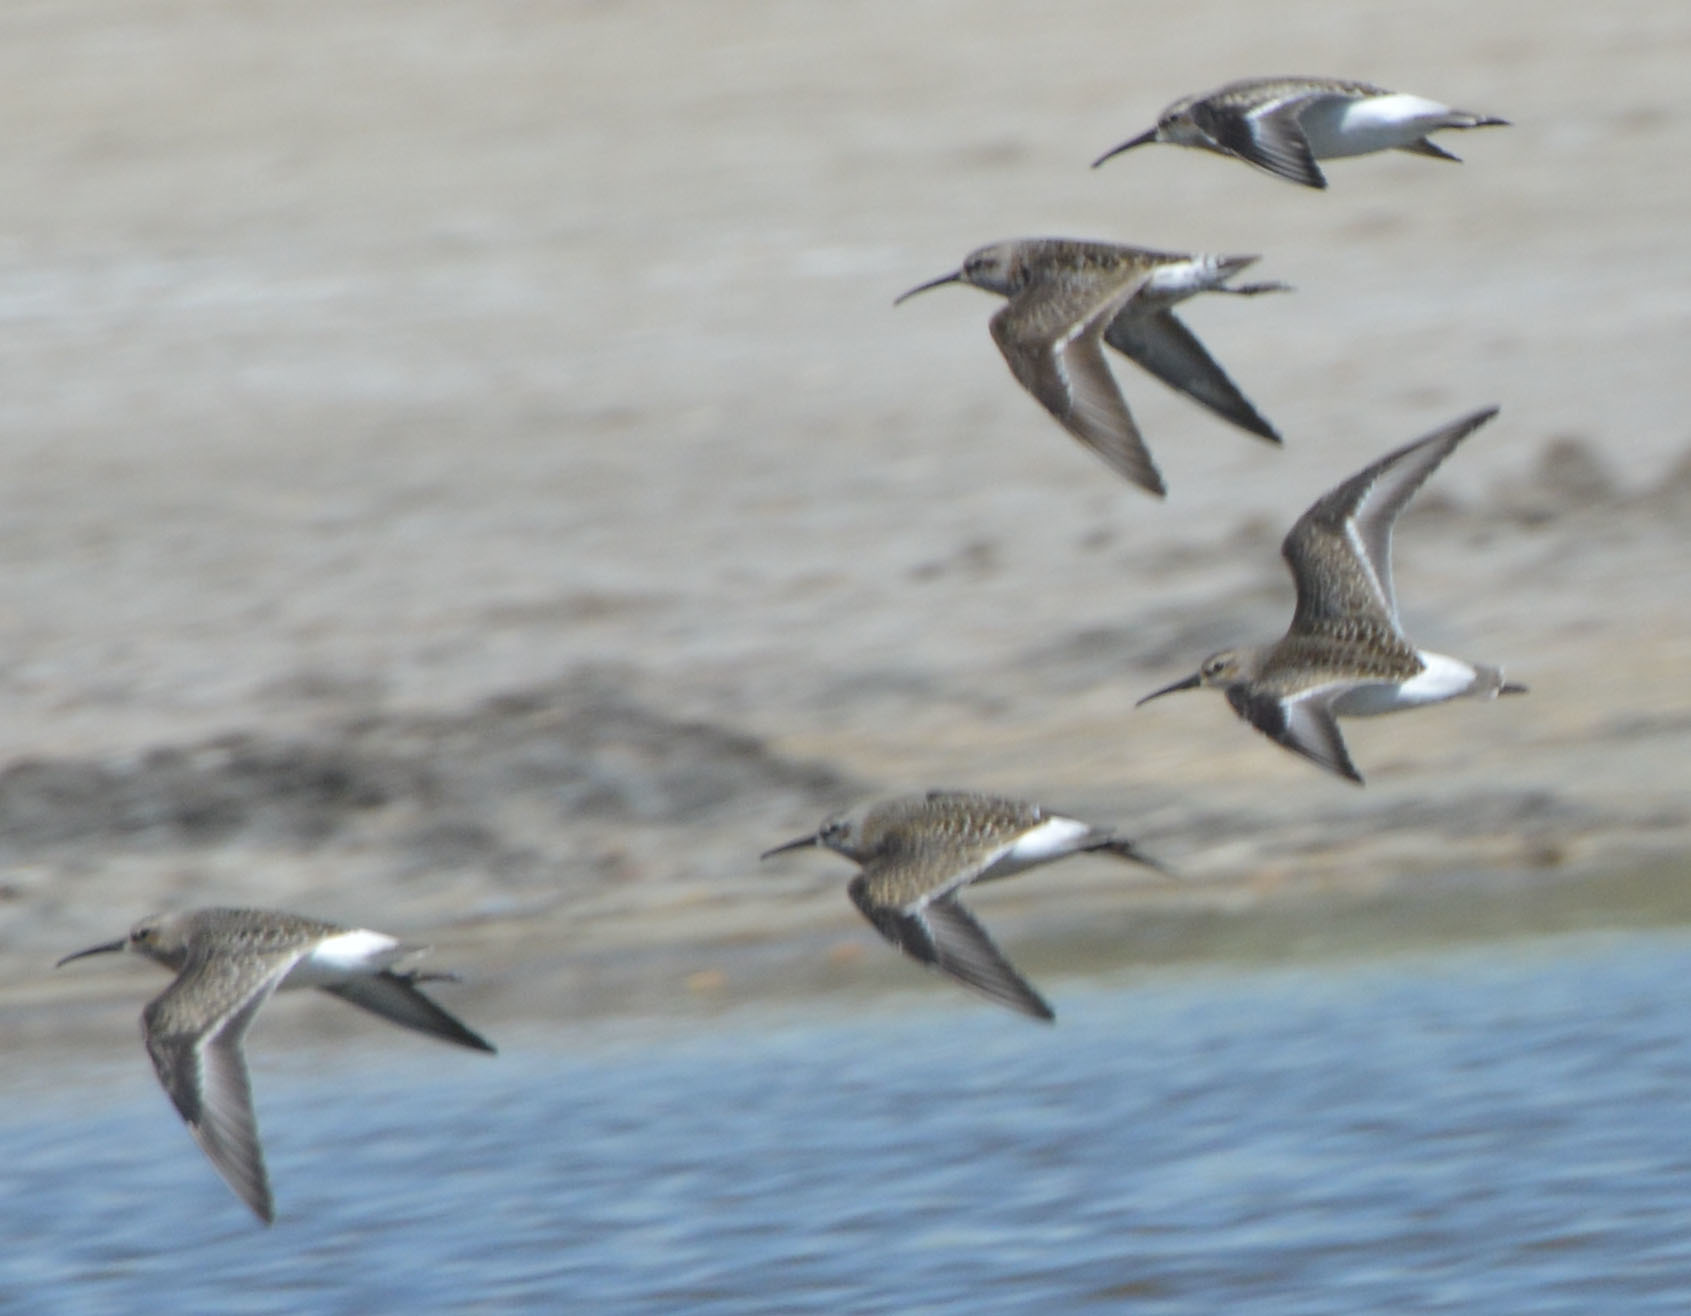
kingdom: Animalia
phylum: Chordata
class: Aves
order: Charadriiformes
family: Scolopacidae
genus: Calidris
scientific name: Calidris ferruginea
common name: Curlew sandpiper
